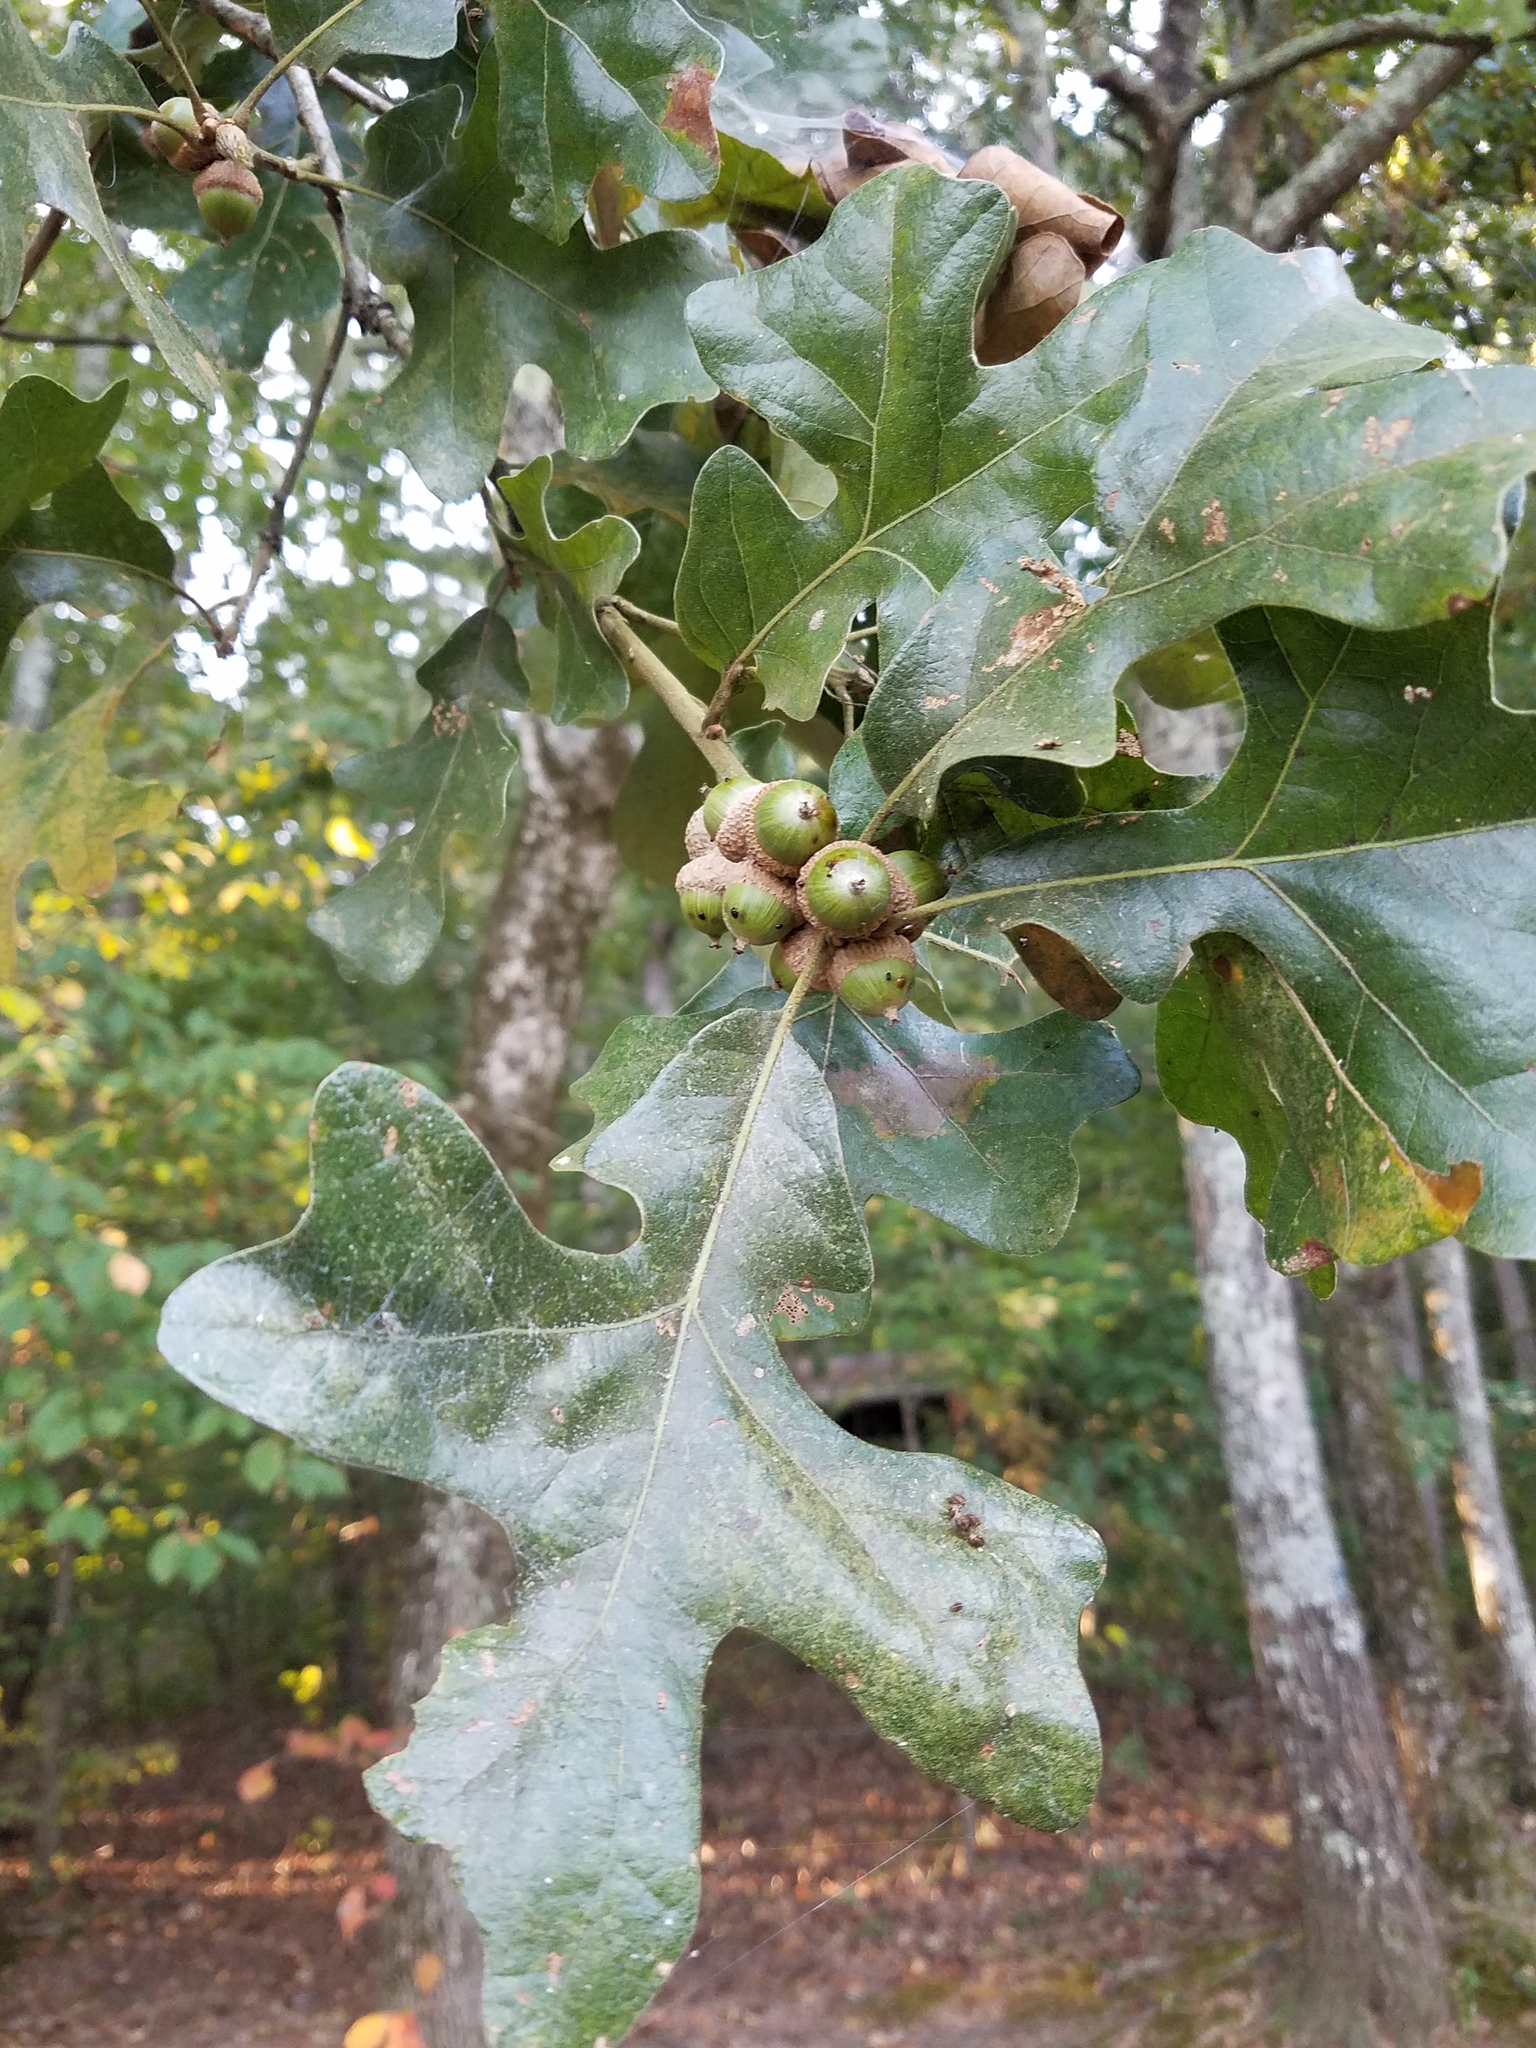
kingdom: Plantae
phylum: Tracheophyta
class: Magnoliopsida
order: Fagales
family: Fagaceae
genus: Quercus
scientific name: Quercus stellata
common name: Post oak
